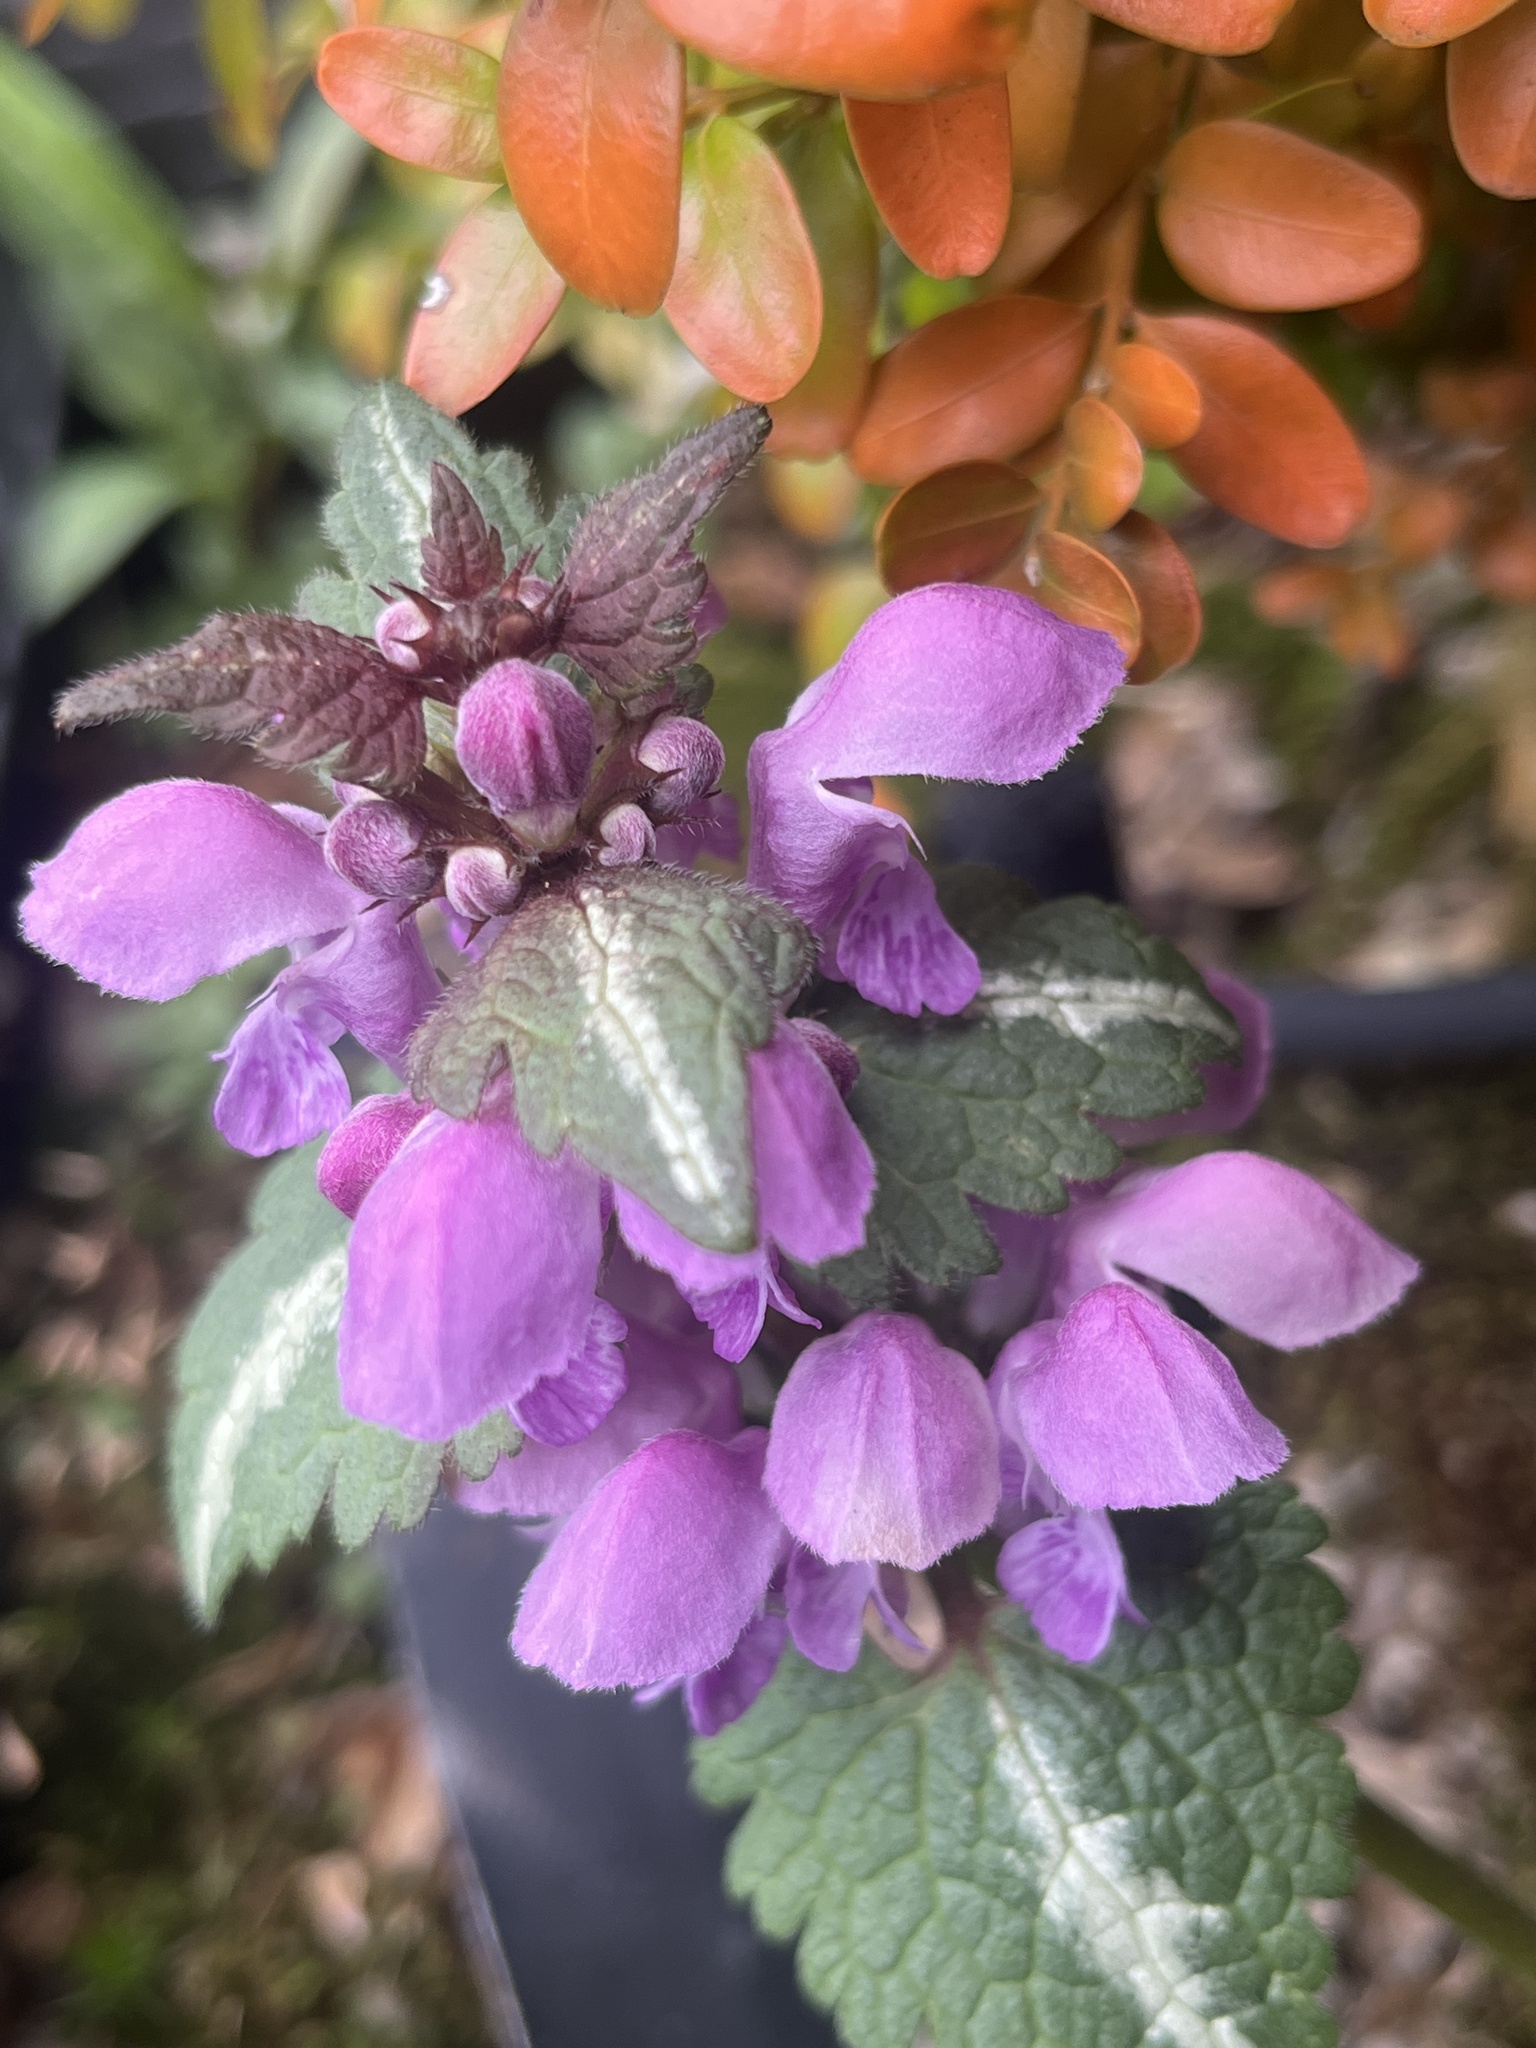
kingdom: Plantae
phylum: Tracheophyta
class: Magnoliopsida
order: Lamiales
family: Lamiaceae
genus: Lamium
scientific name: Lamium maculatum
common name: Spotted dead-nettle
